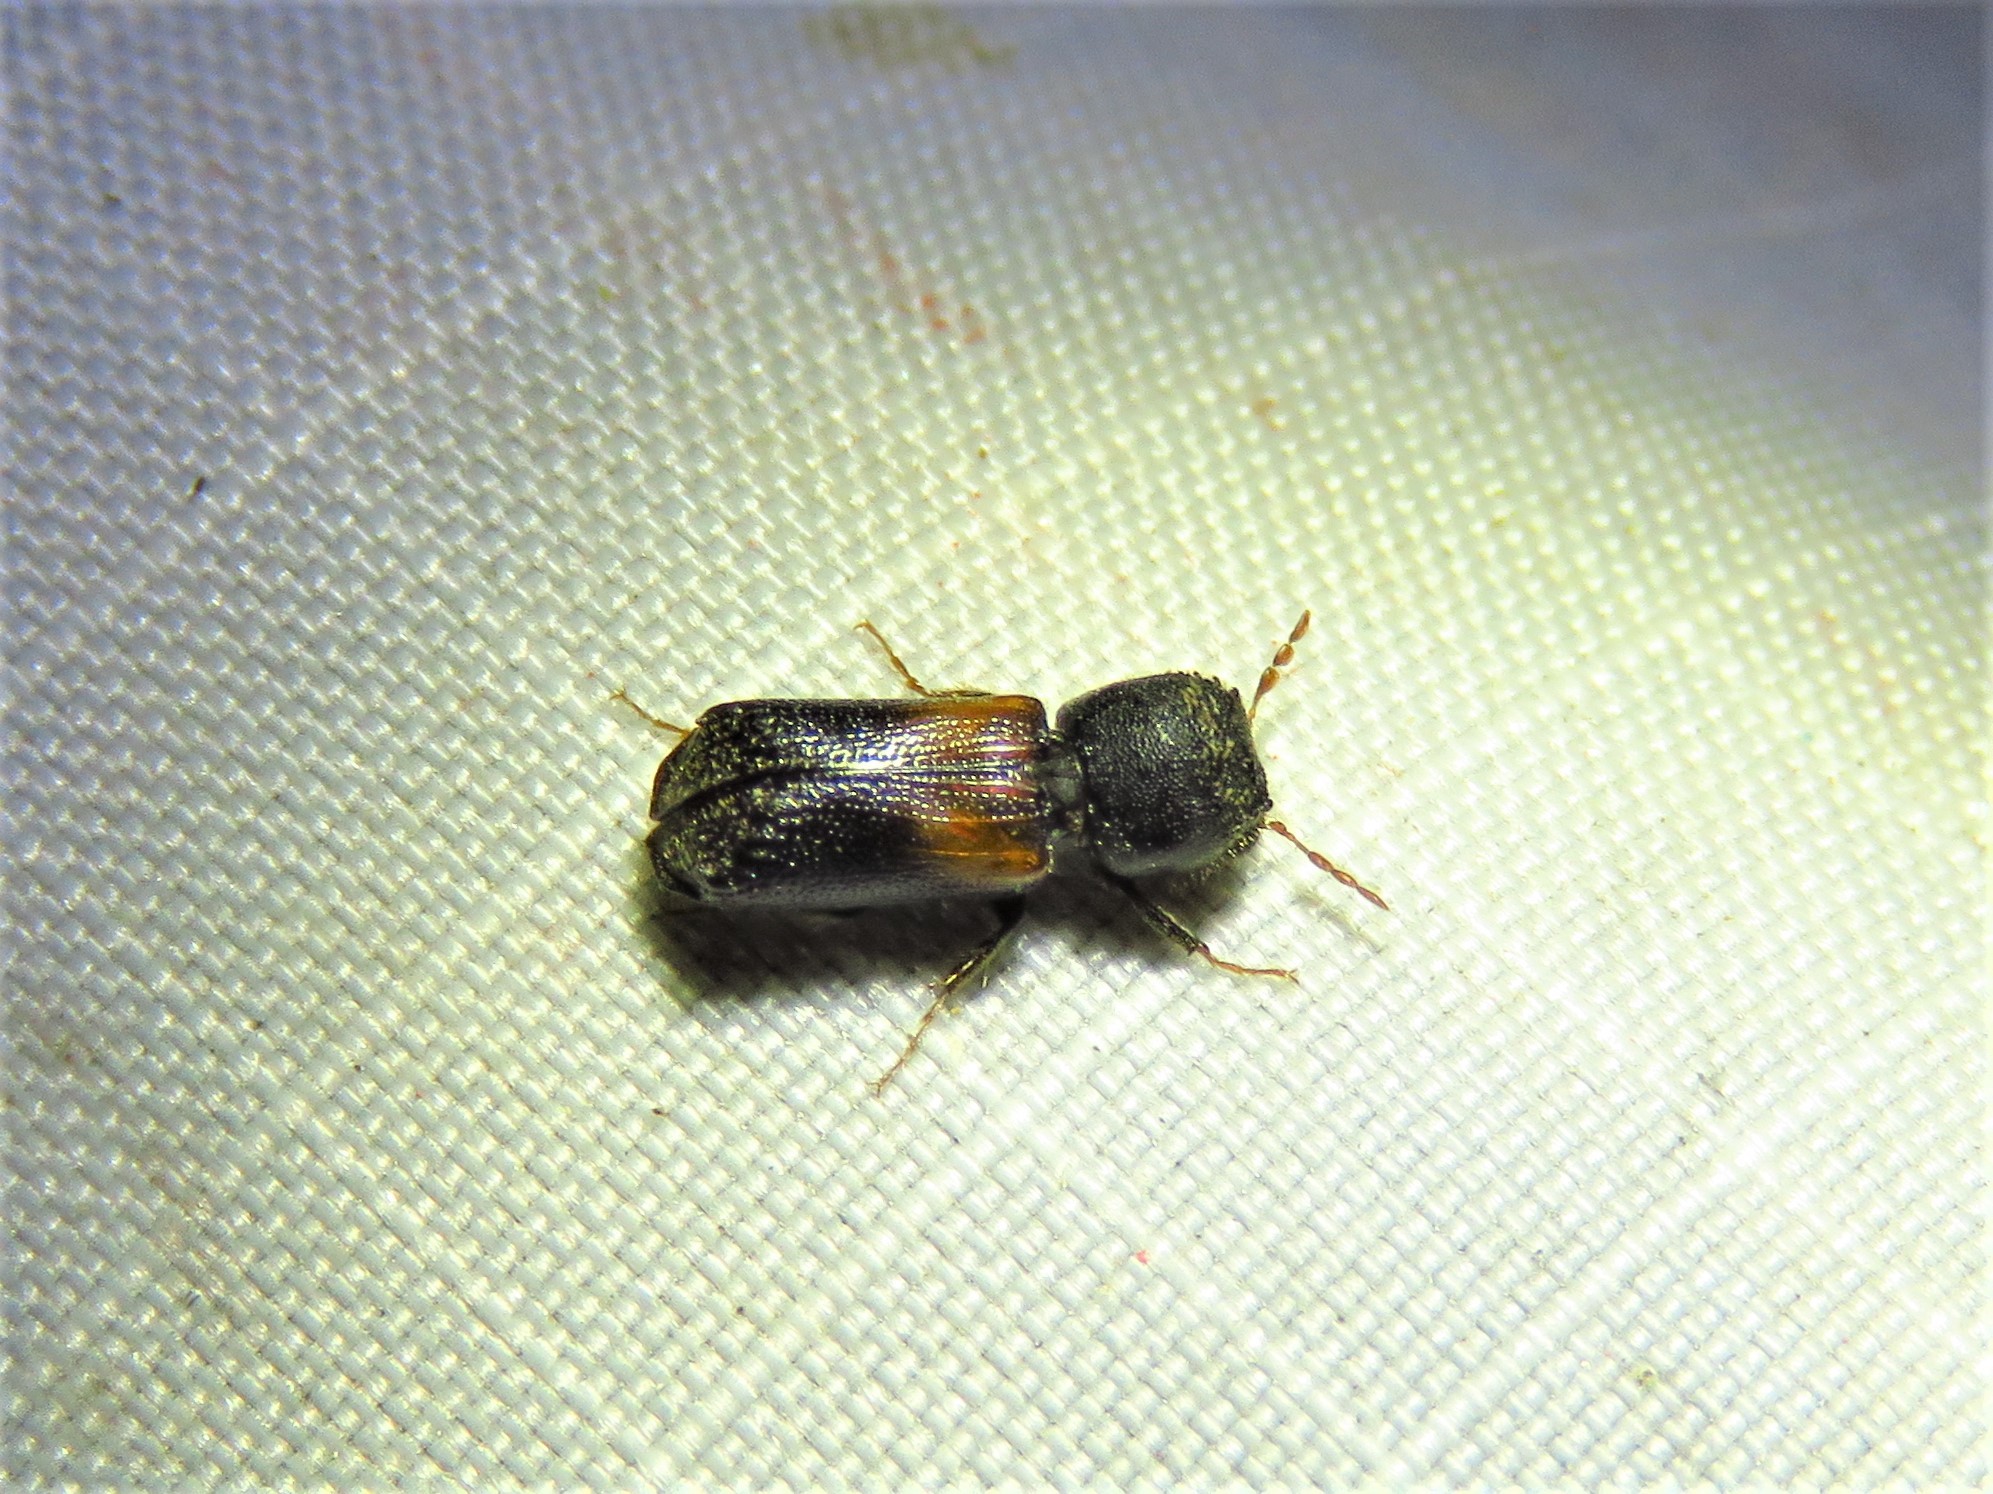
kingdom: Animalia
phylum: Arthropoda
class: Insecta
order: Coleoptera
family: Bostrichidae
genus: Xylobiops
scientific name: Xylobiops basilaris
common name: Red-shouldered bostrichid
